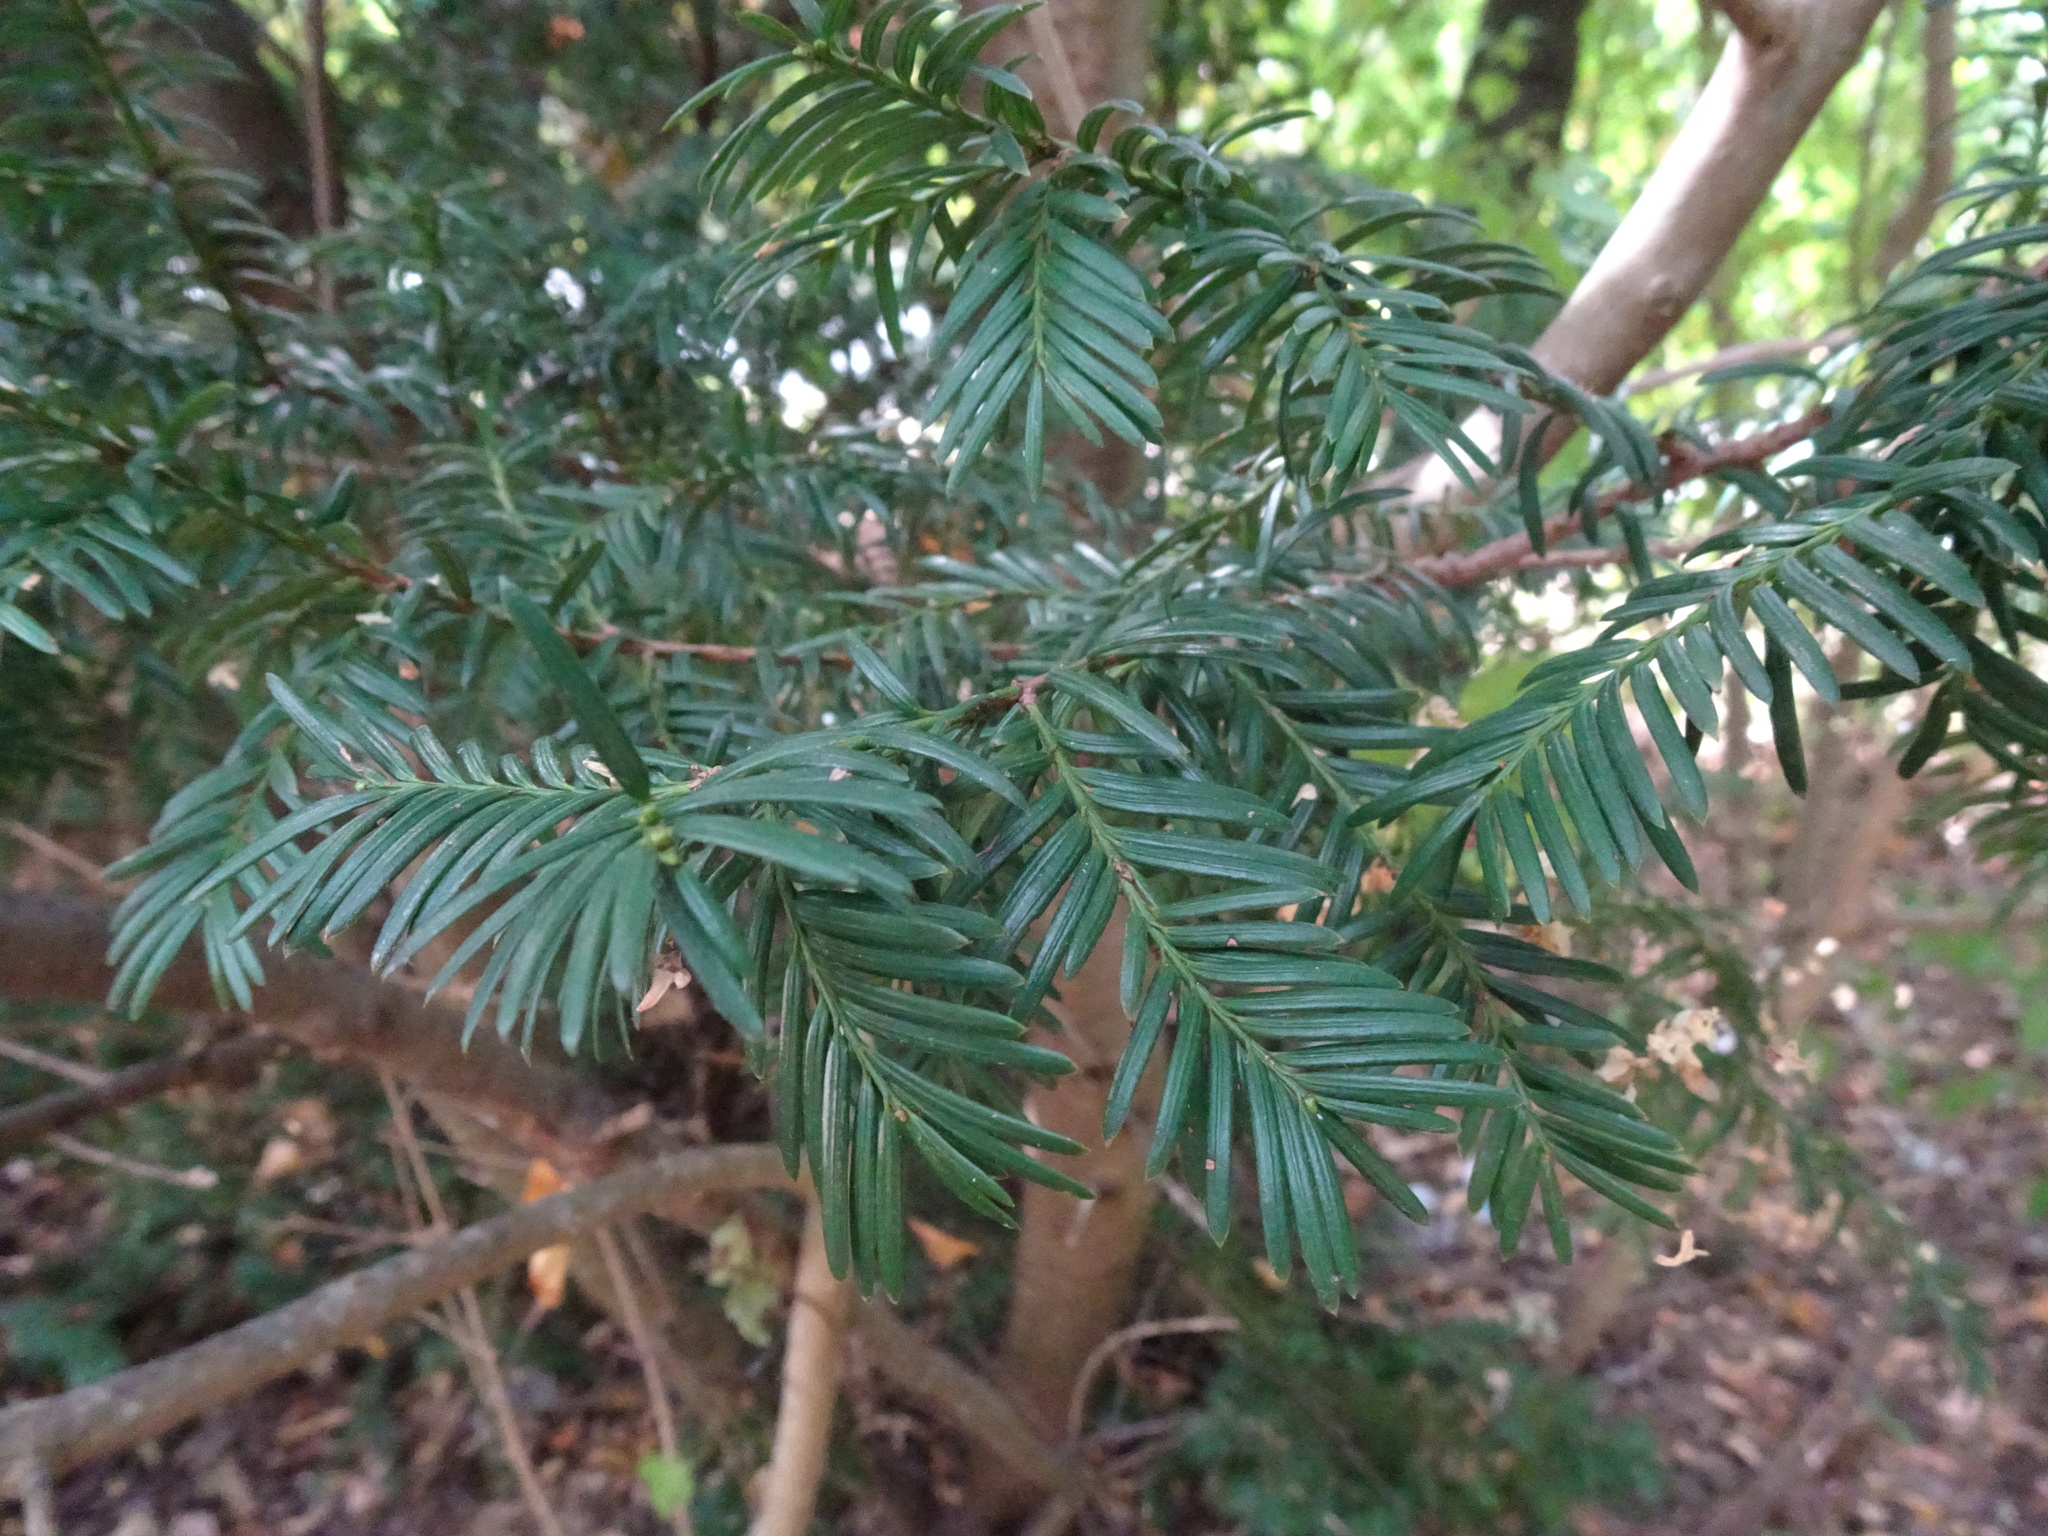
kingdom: Plantae
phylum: Tracheophyta
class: Pinopsida
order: Pinales
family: Taxaceae
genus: Taxus
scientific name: Taxus baccata
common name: Yew
